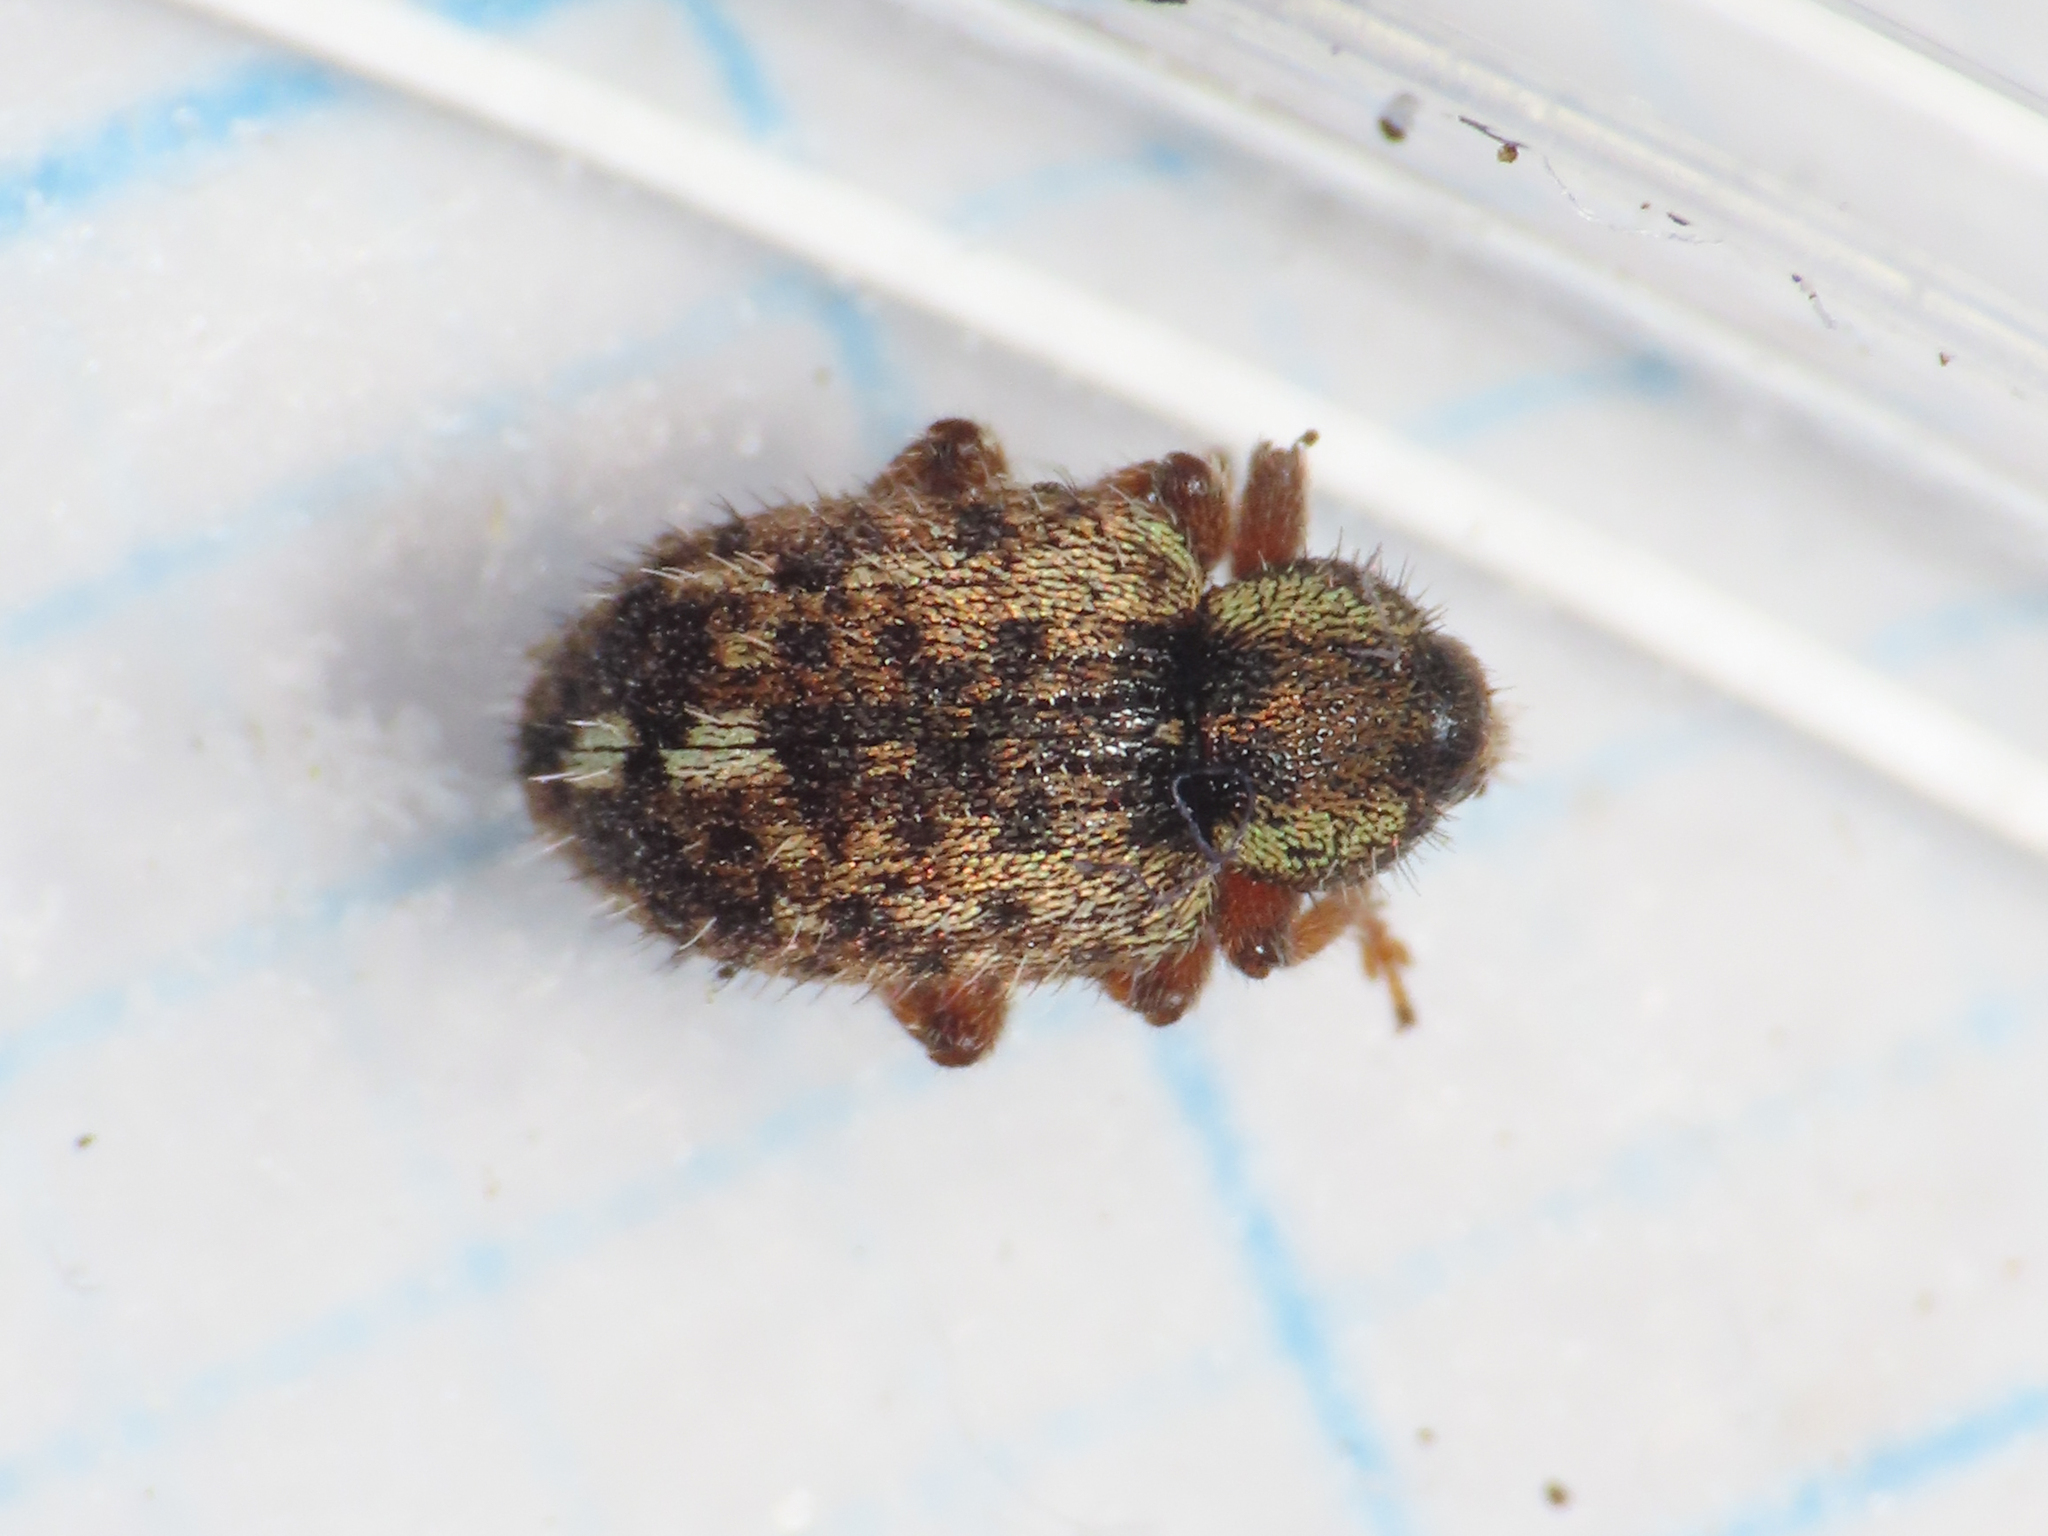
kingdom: Animalia
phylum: Arthropoda
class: Insecta
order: Coleoptera
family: Curculionidae
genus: Limobius
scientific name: Limobius borealis
